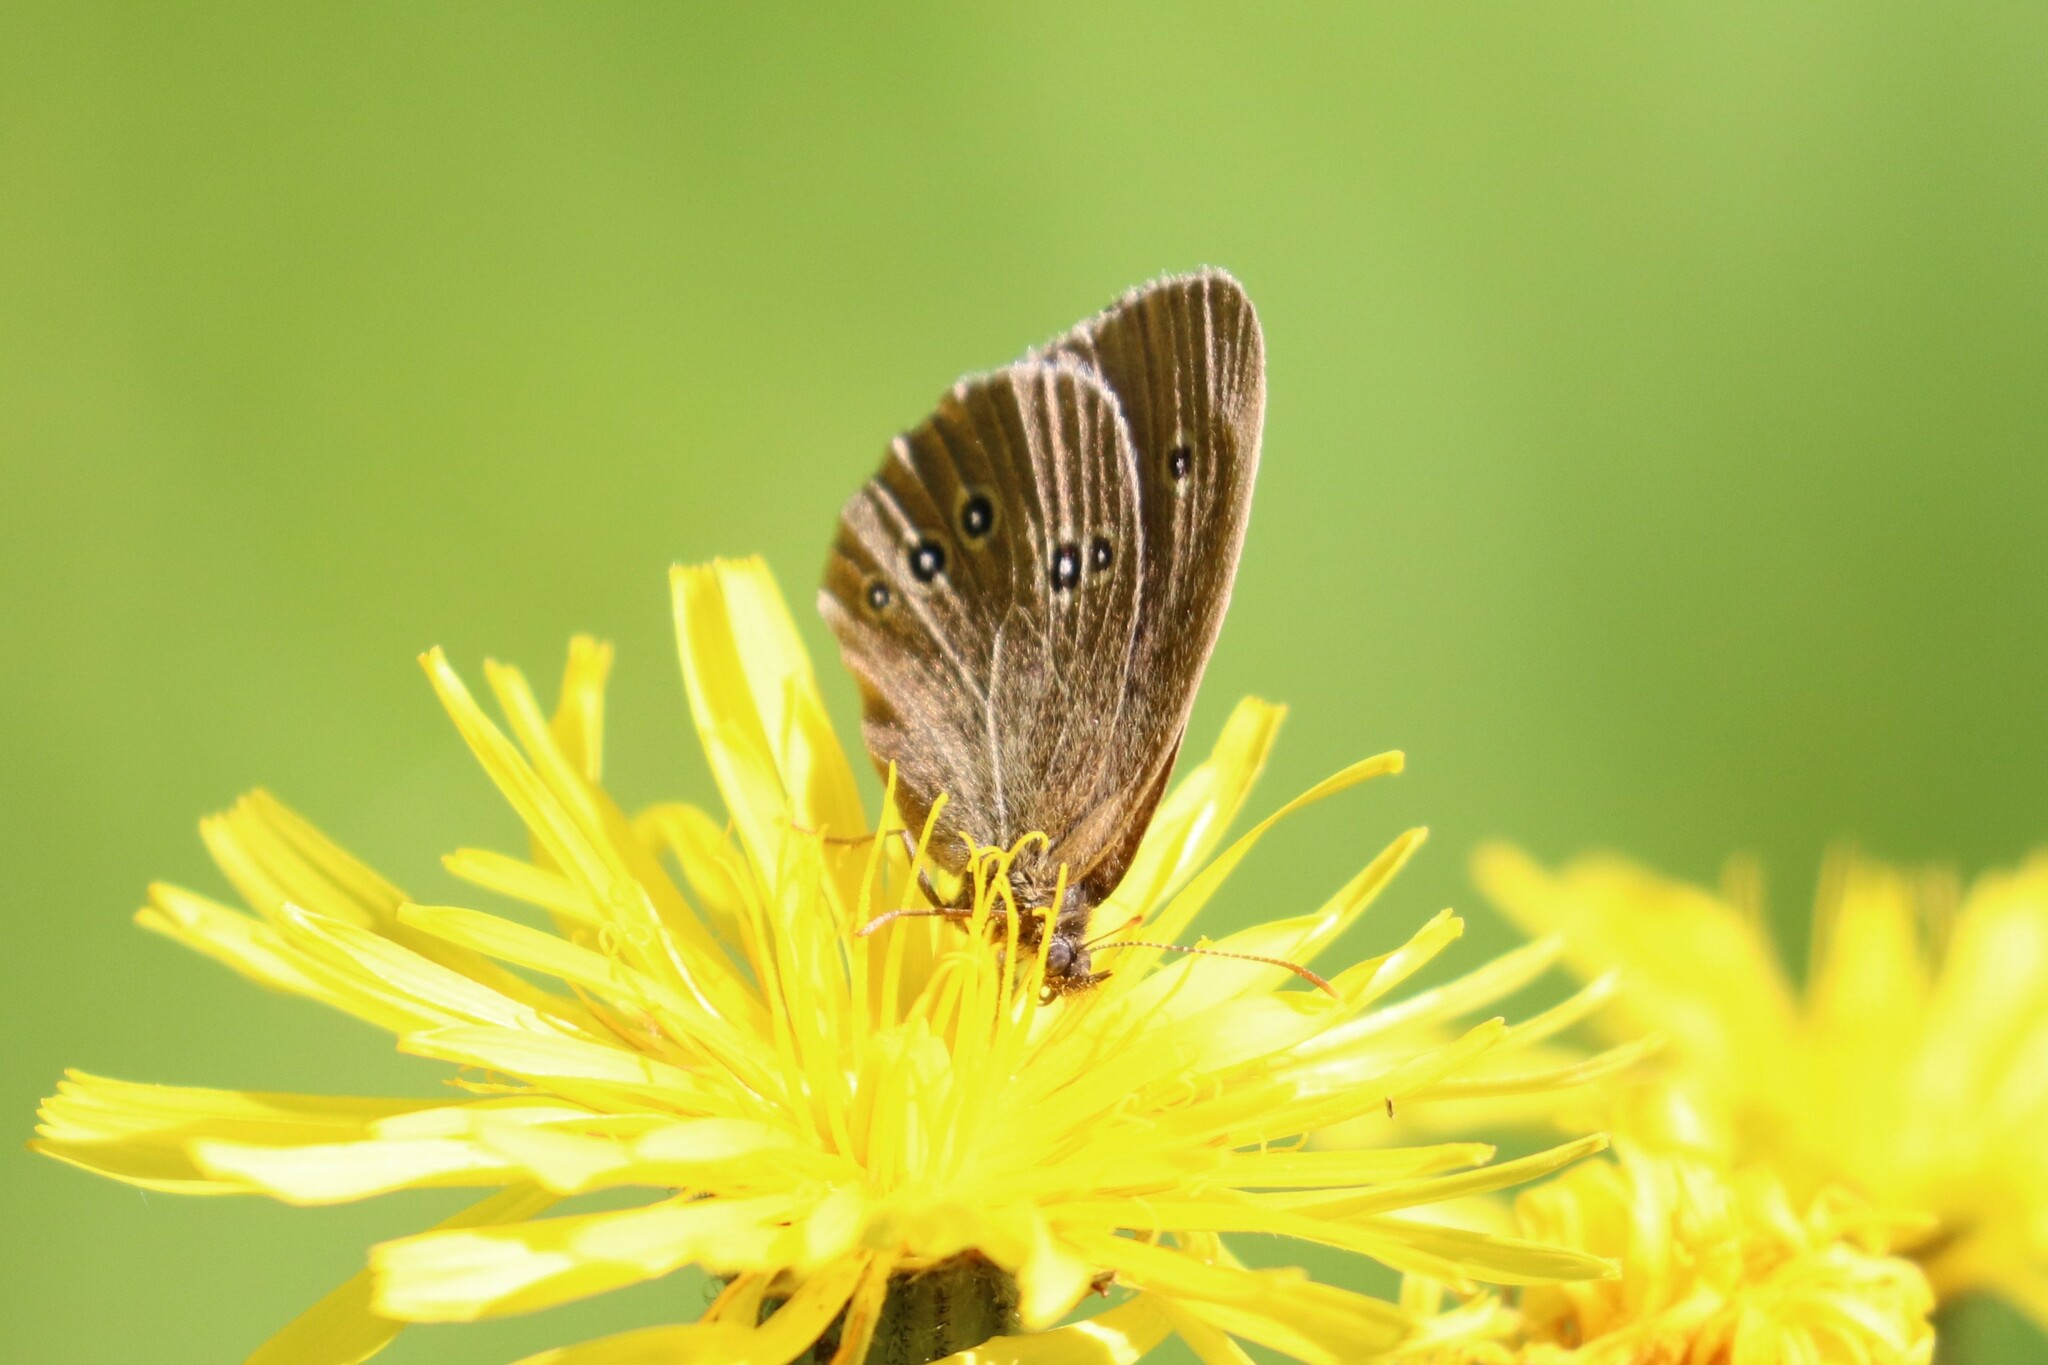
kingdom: Animalia
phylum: Arthropoda
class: Insecta
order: Lepidoptera
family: Nymphalidae
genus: Aphantopus
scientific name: Aphantopus hyperantus
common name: Ringlet
